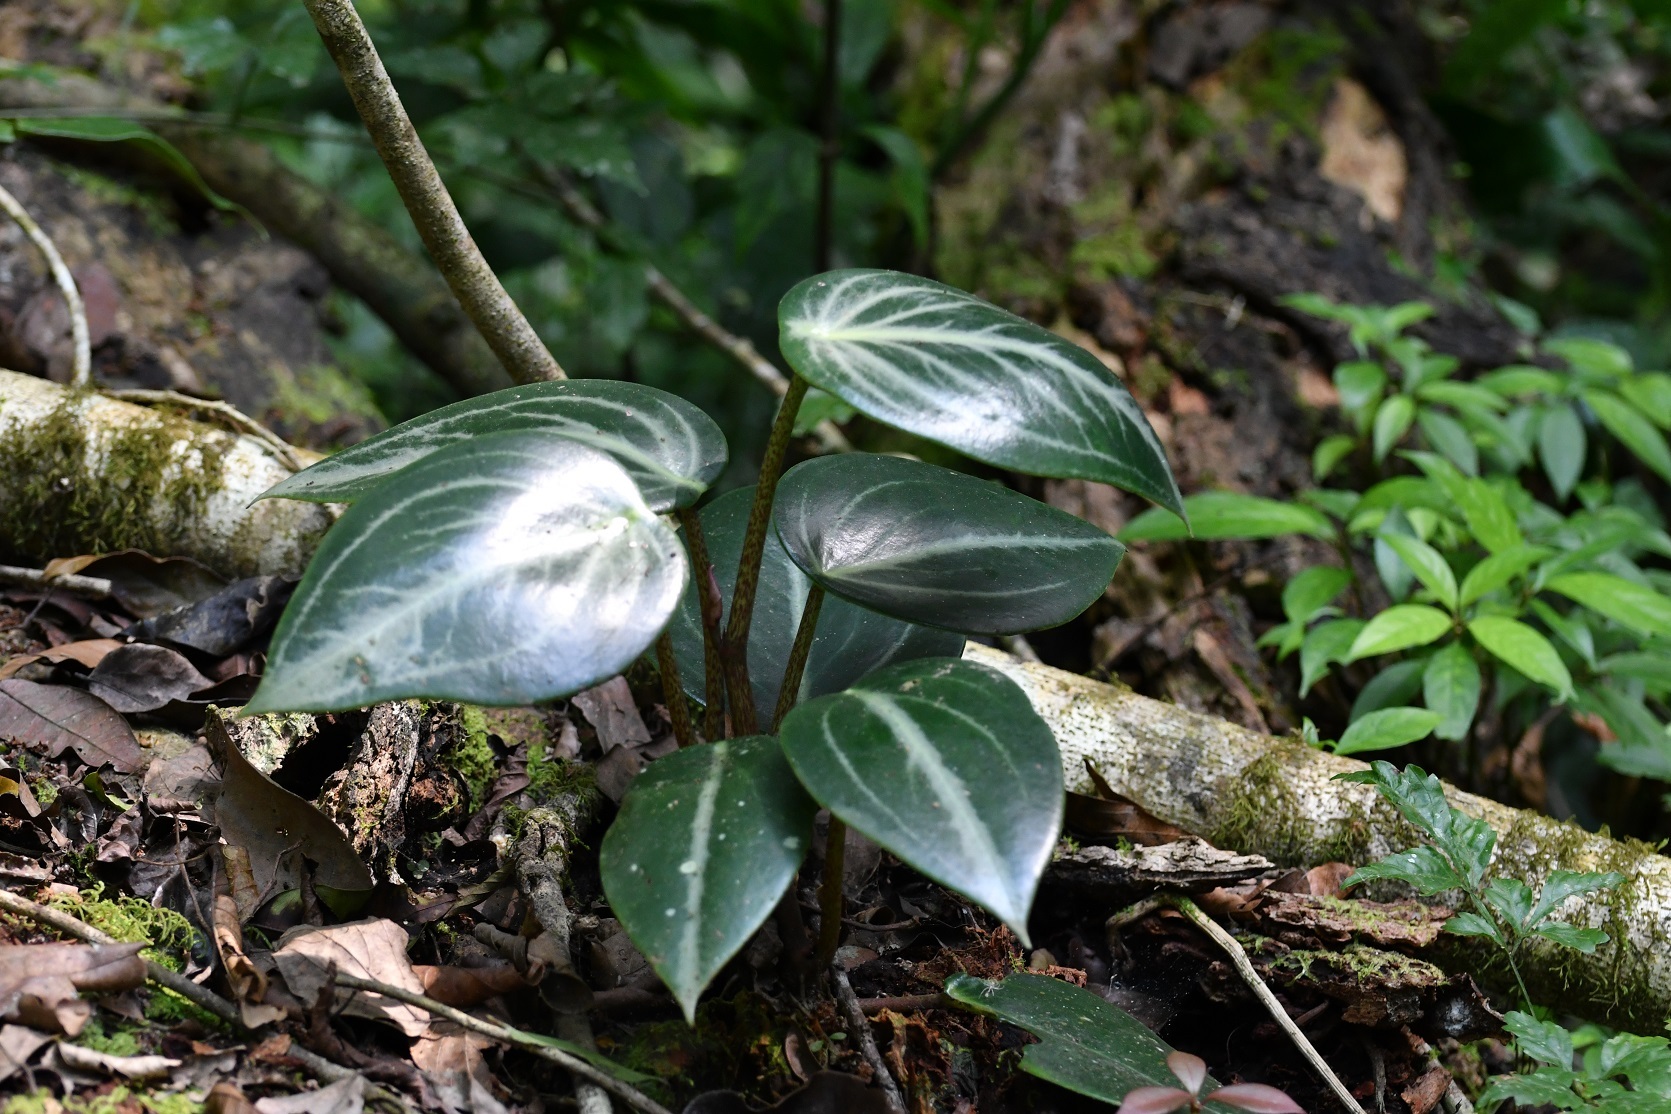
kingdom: Plantae
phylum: Tracheophyta
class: Magnoliopsida
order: Piperales
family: Piperaceae
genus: Peperomia
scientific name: Peperomia maculosa
